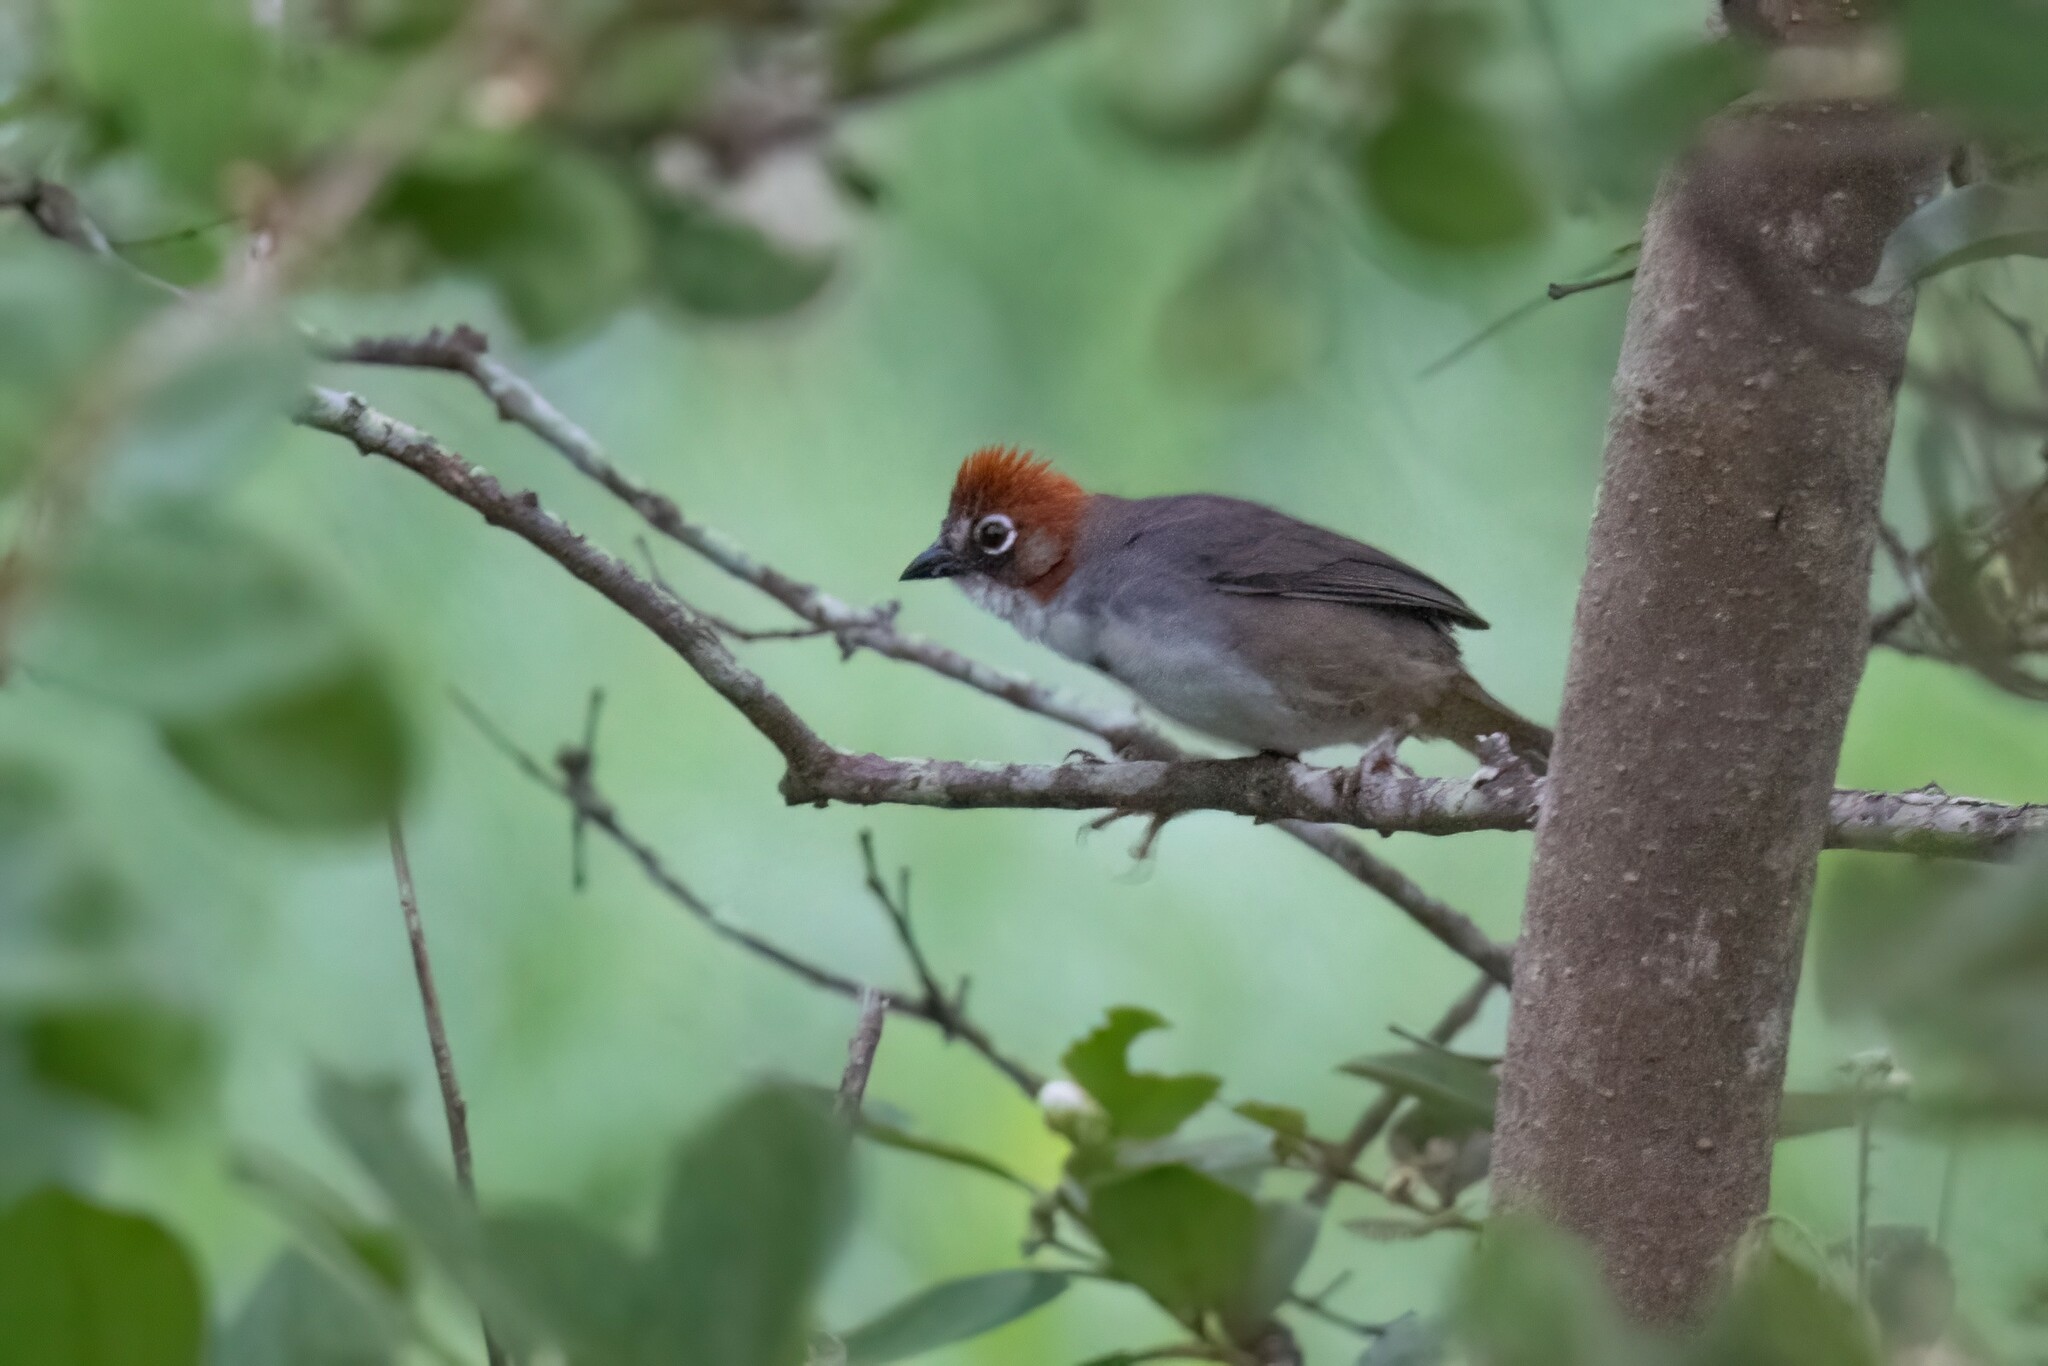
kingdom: Animalia
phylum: Chordata
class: Aves
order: Passeriformes
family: Passerellidae
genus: Melozone
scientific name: Melozone kieneri
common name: Rusty-crowned ground-sparrow
